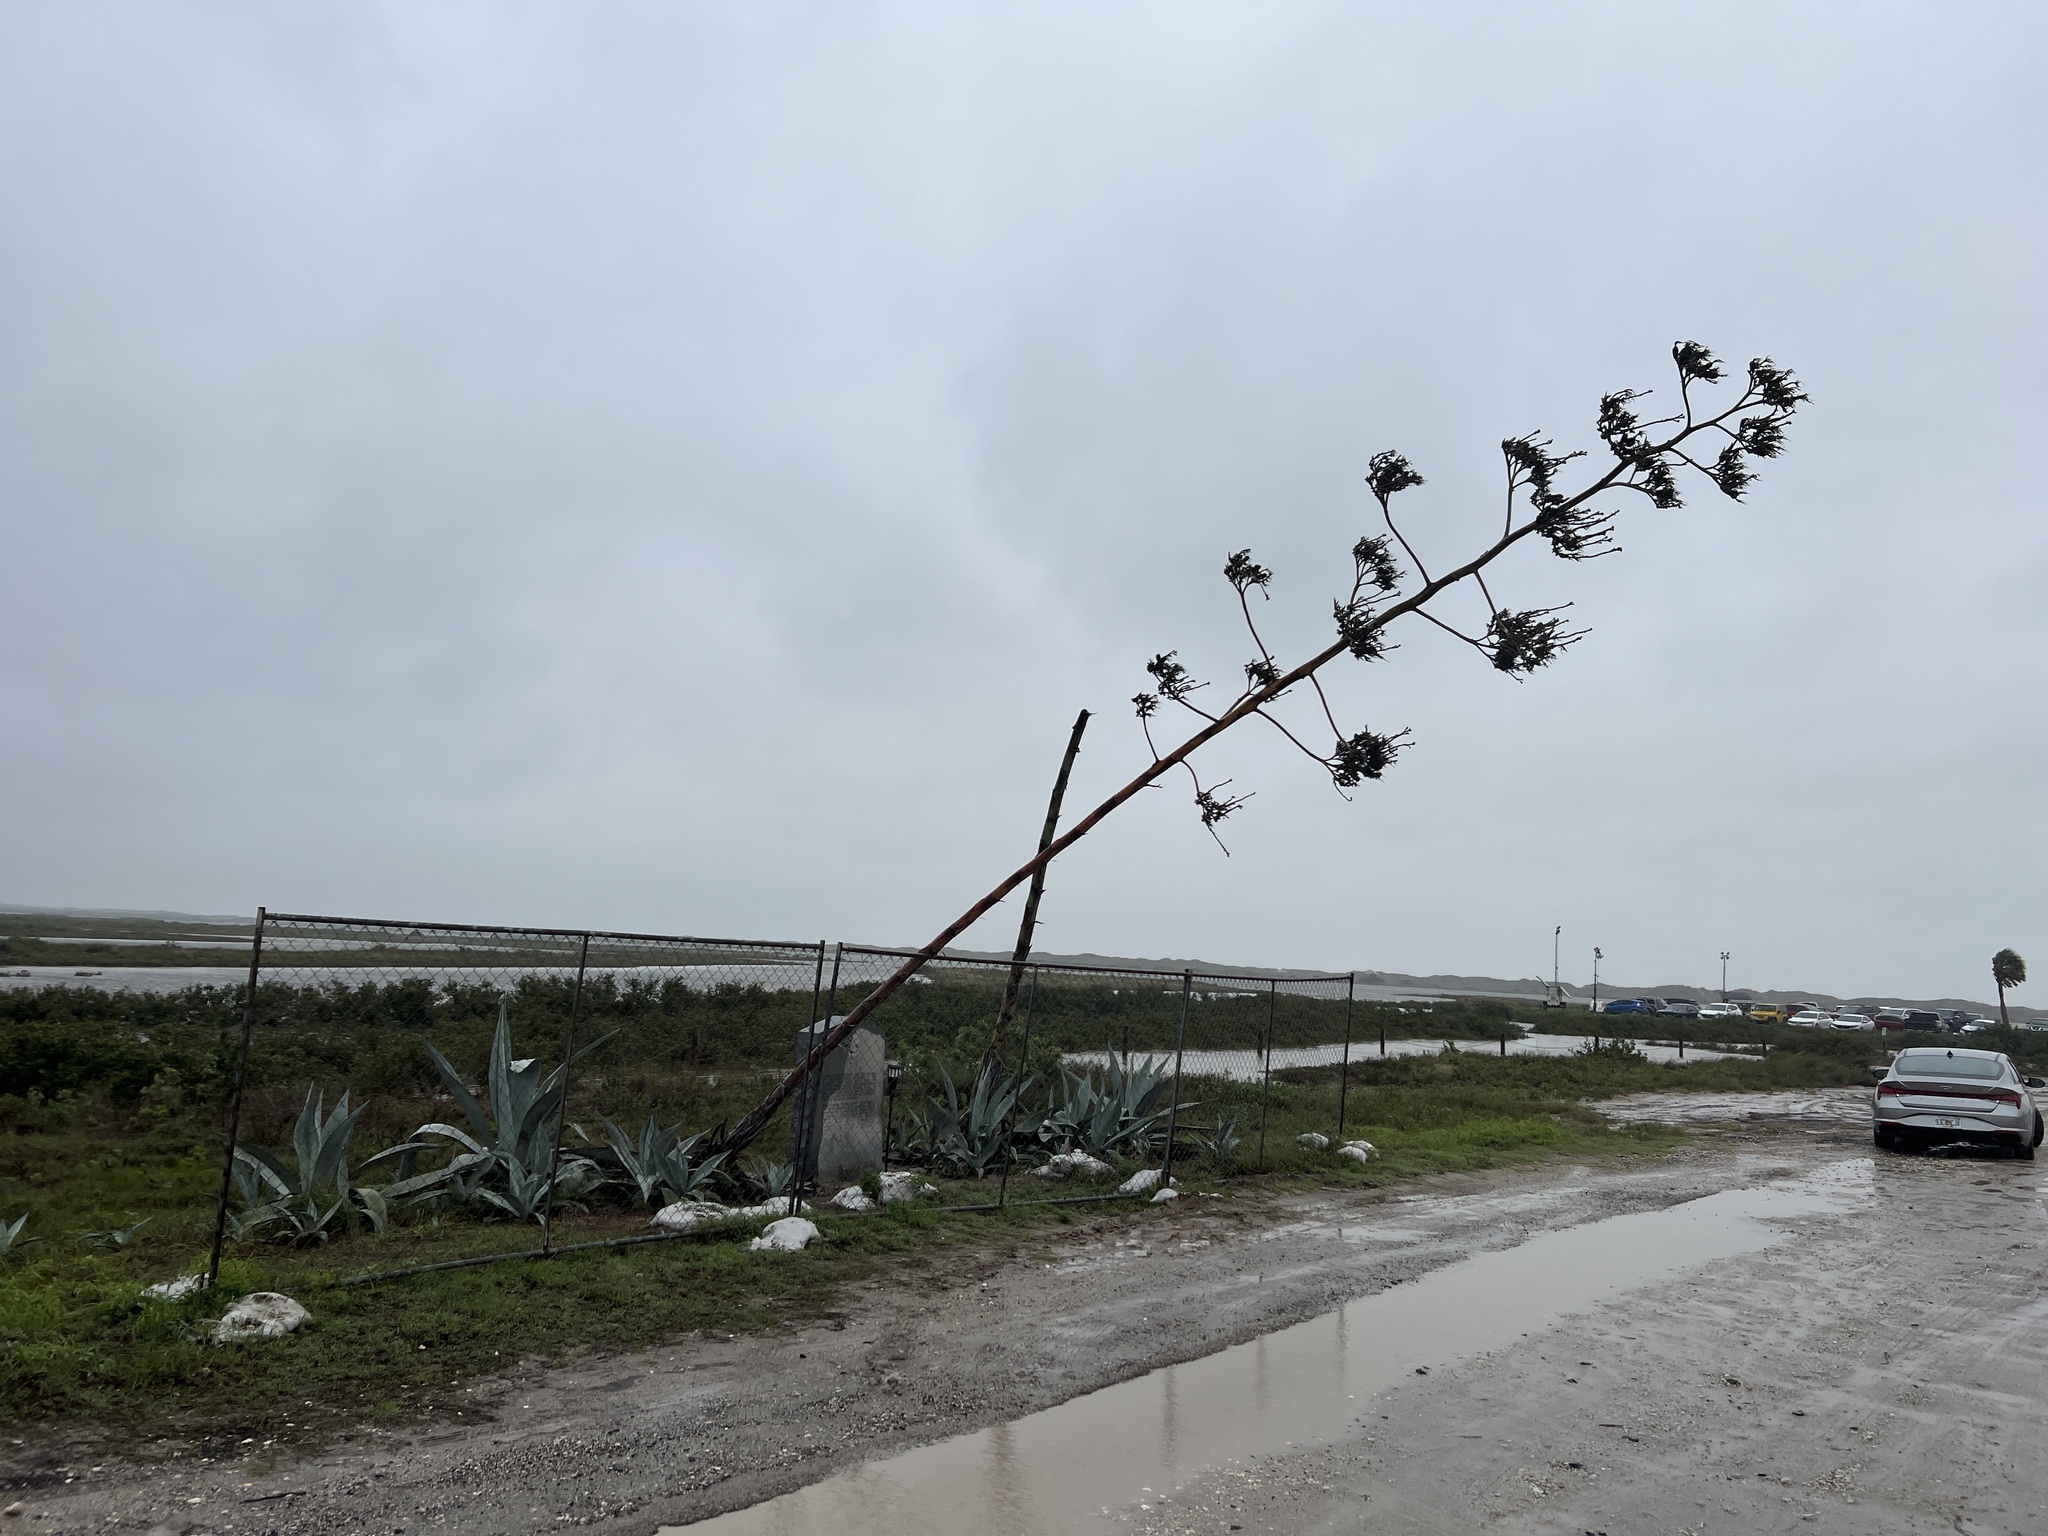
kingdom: Plantae
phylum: Tracheophyta
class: Liliopsida
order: Asparagales
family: Asparagaceae
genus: Agave
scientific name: Agave americana
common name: Centuryplant
